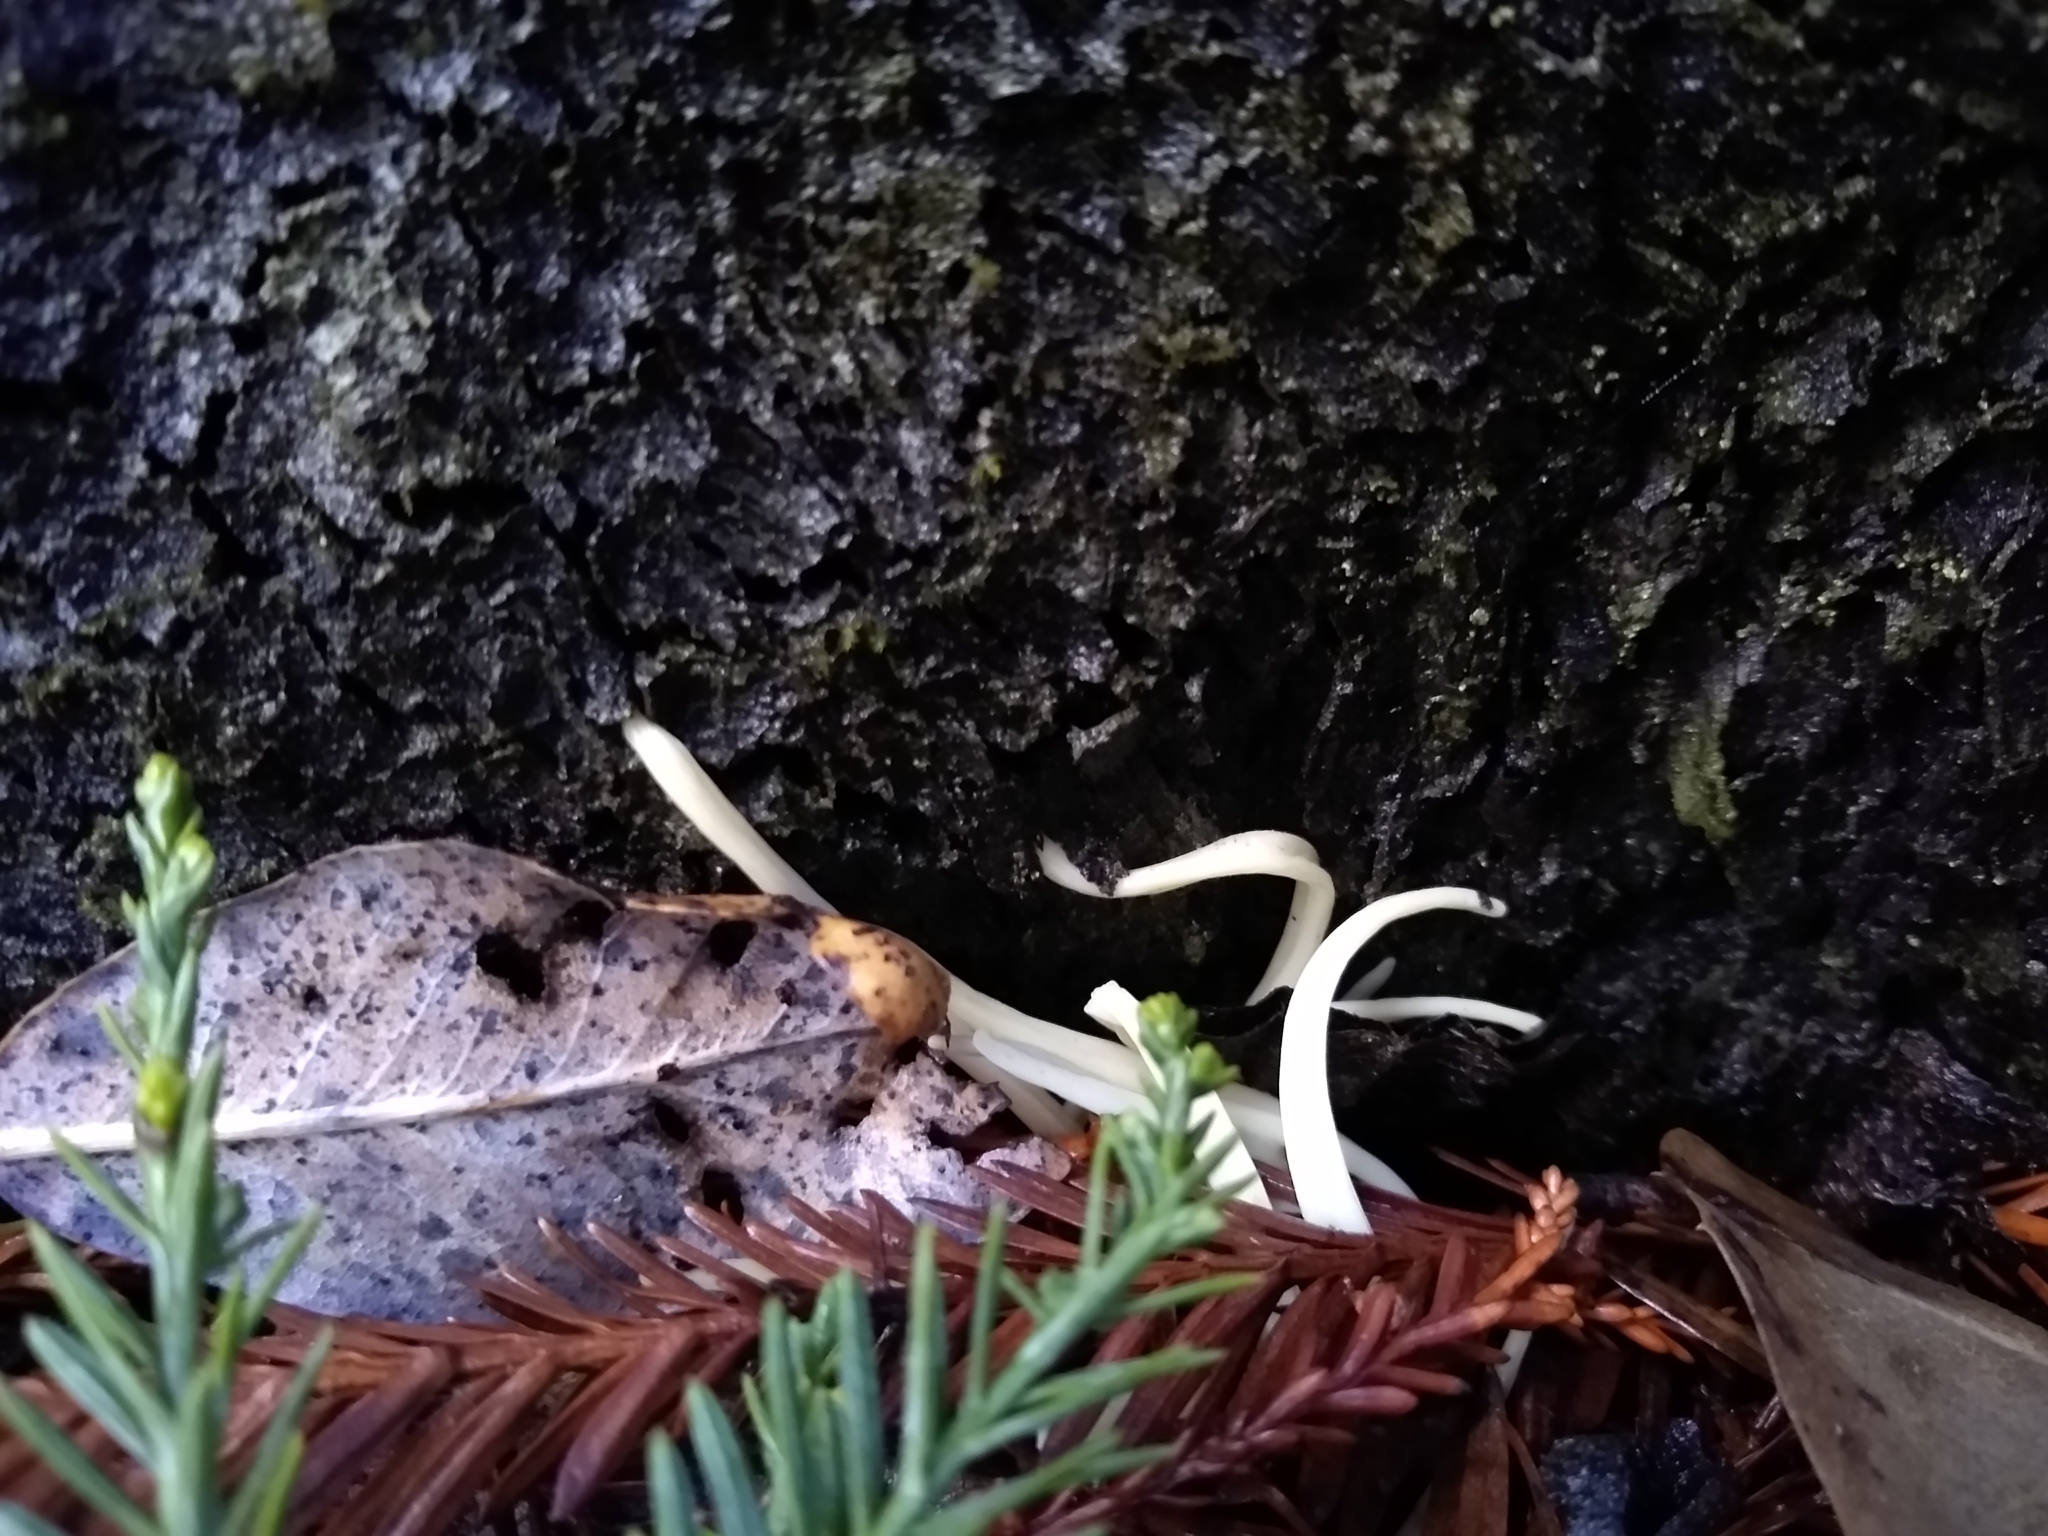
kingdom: Fungi
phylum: Basidiomycota
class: Agaricomycetes
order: Agaricales
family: Clavariaceae
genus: Clavaria
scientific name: Clavaria fragilis
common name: White spindles
